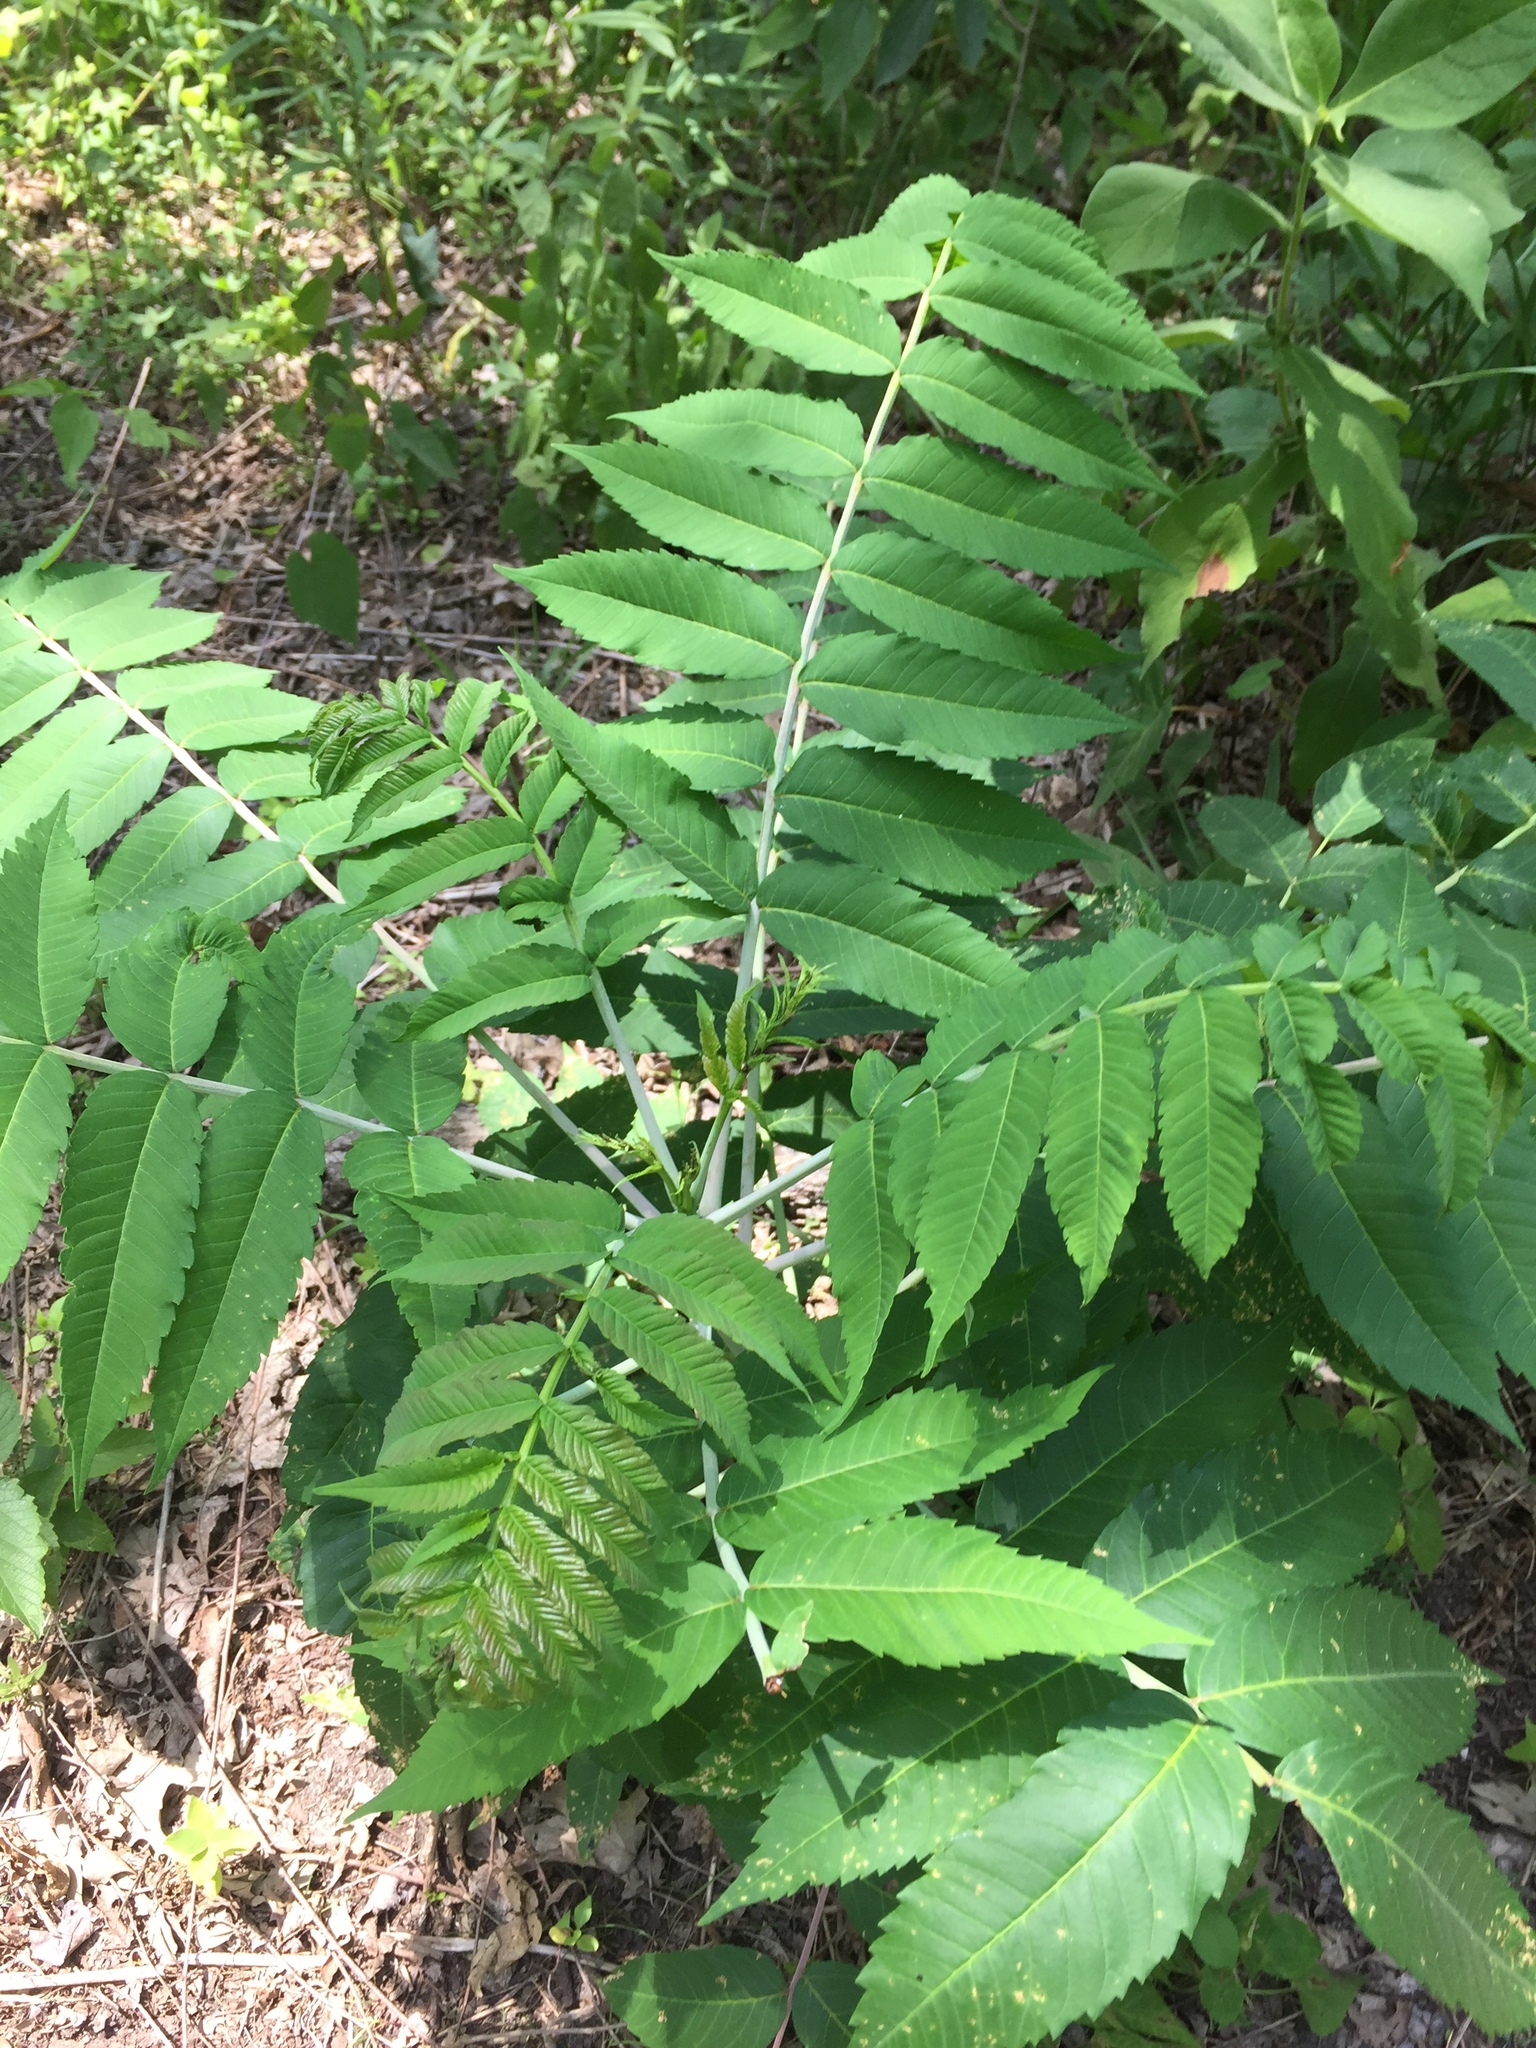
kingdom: Plantae
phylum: Tracheophyta
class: Magnoliopsida
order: Sapindales
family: Anacardiaceae
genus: Rhus
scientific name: Rhus glabra
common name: Scarlet sumac
